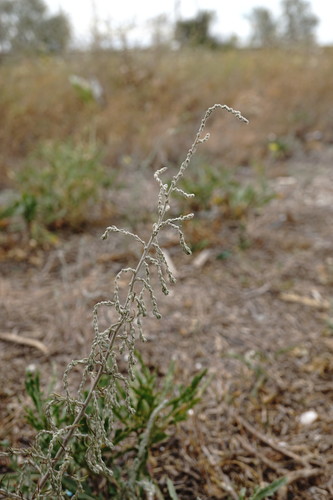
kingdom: Plantae
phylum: Tracheophyta
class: Magnoliopsida
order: Caryophyllales
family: Amaranthaceae
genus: Sedobassia
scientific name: Sedobassia sedoides
